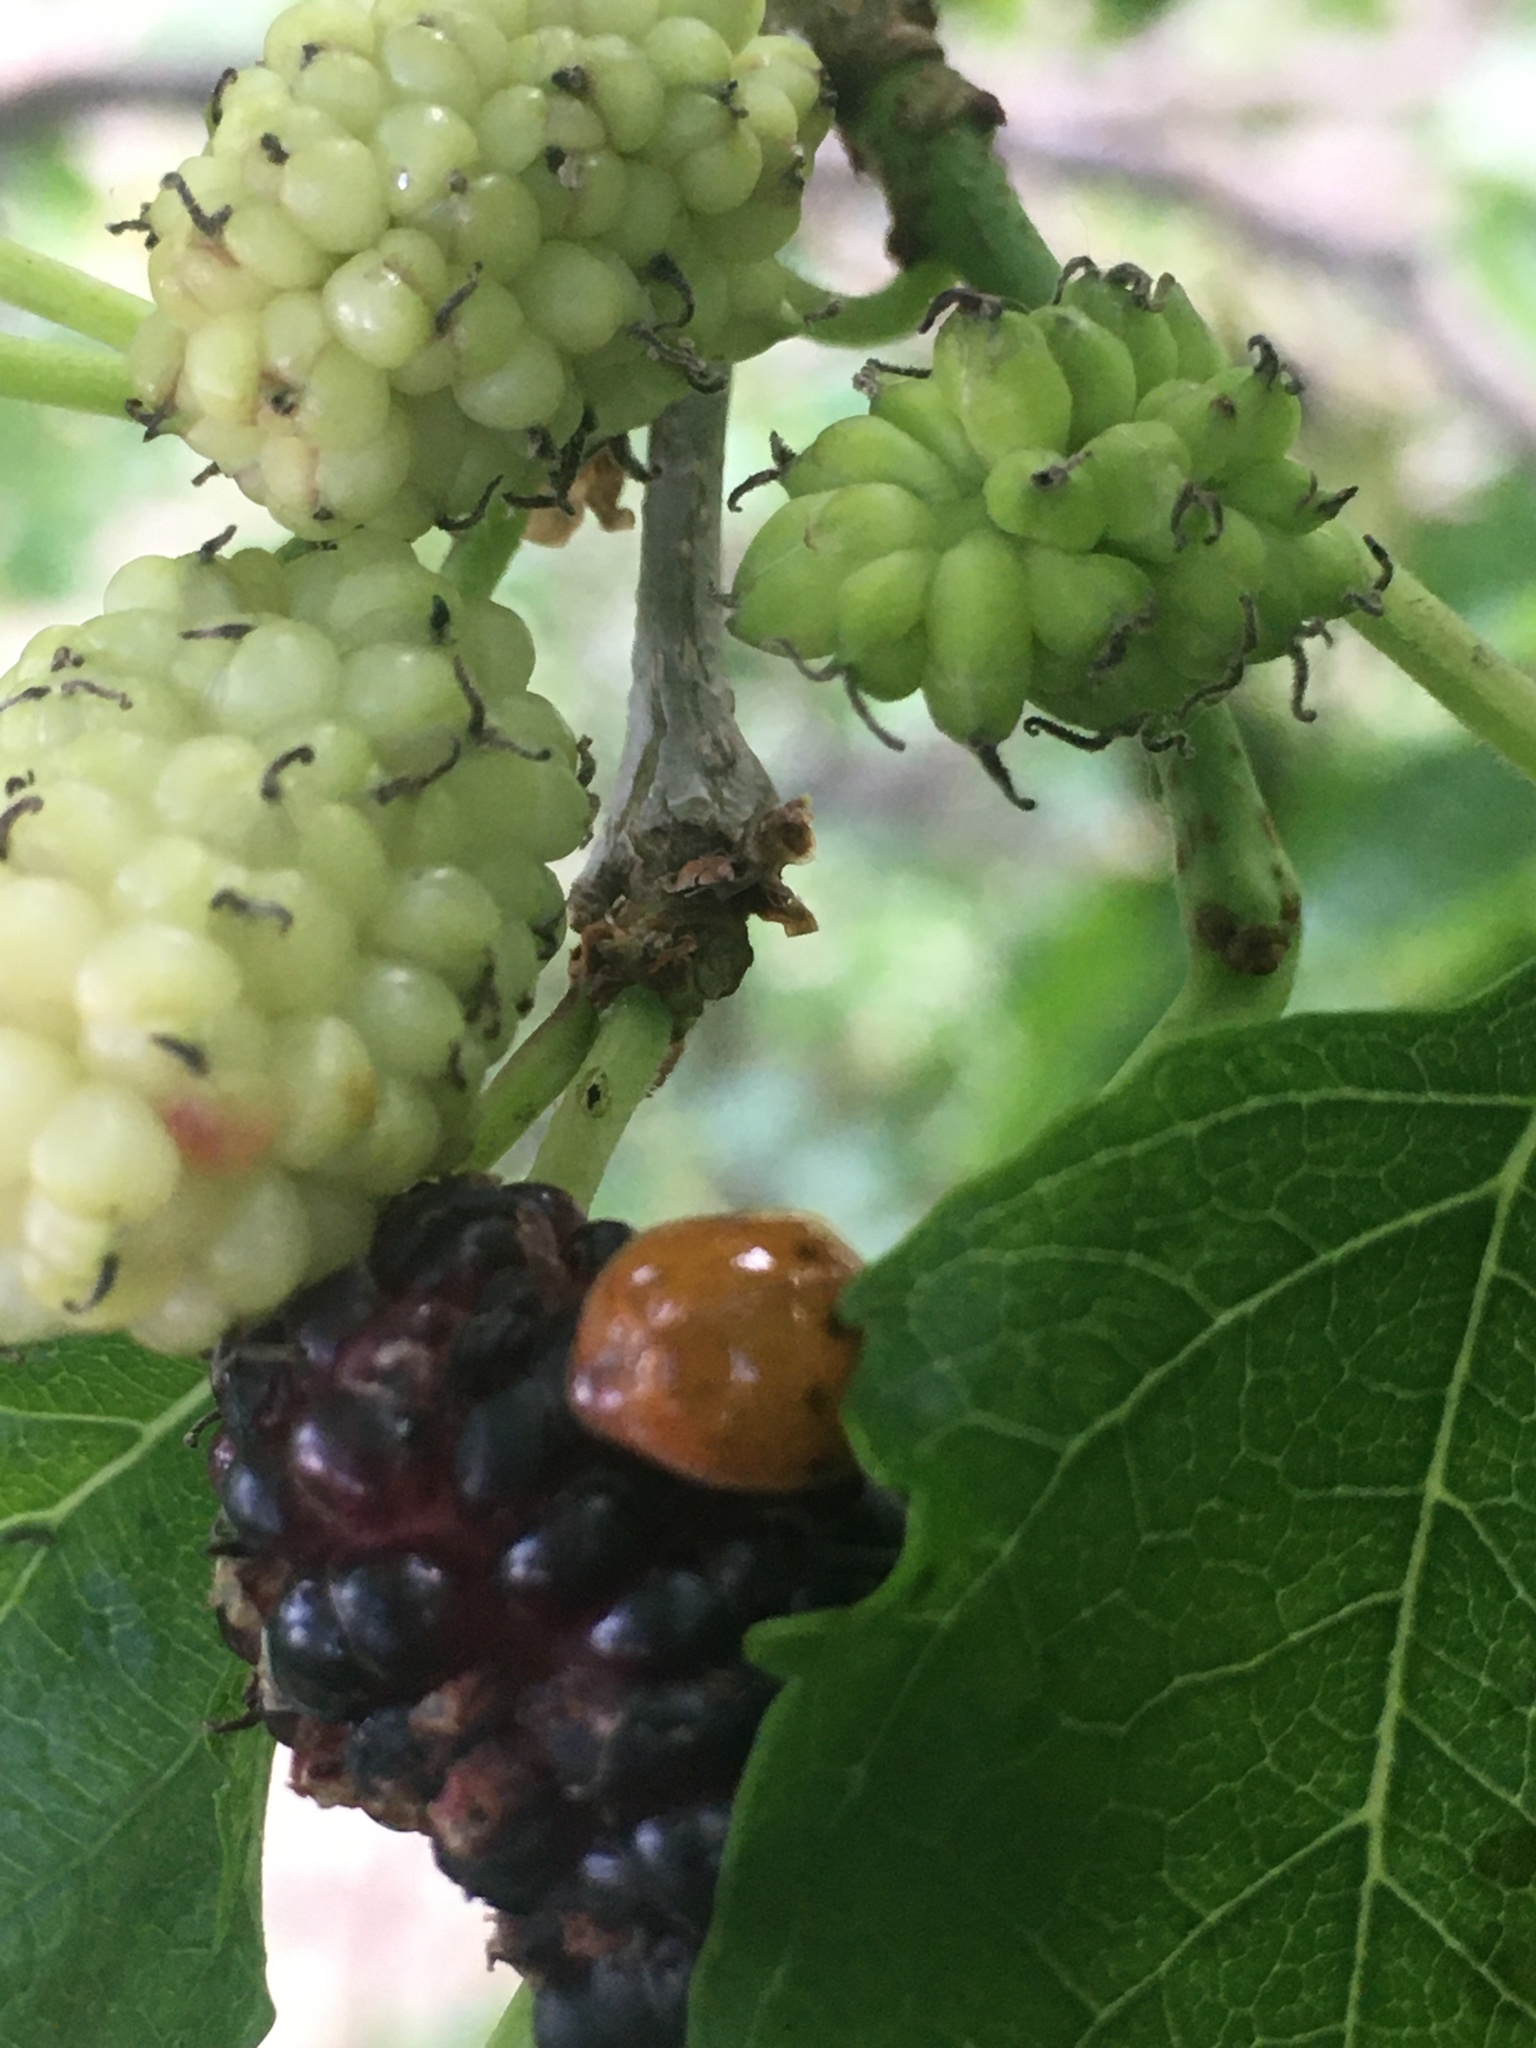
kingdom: Plantae
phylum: Tracheophyta
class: Magnoliopsida
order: Rosales
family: Moraceae
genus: Morus
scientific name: Morus nigra
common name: Black mulberry
